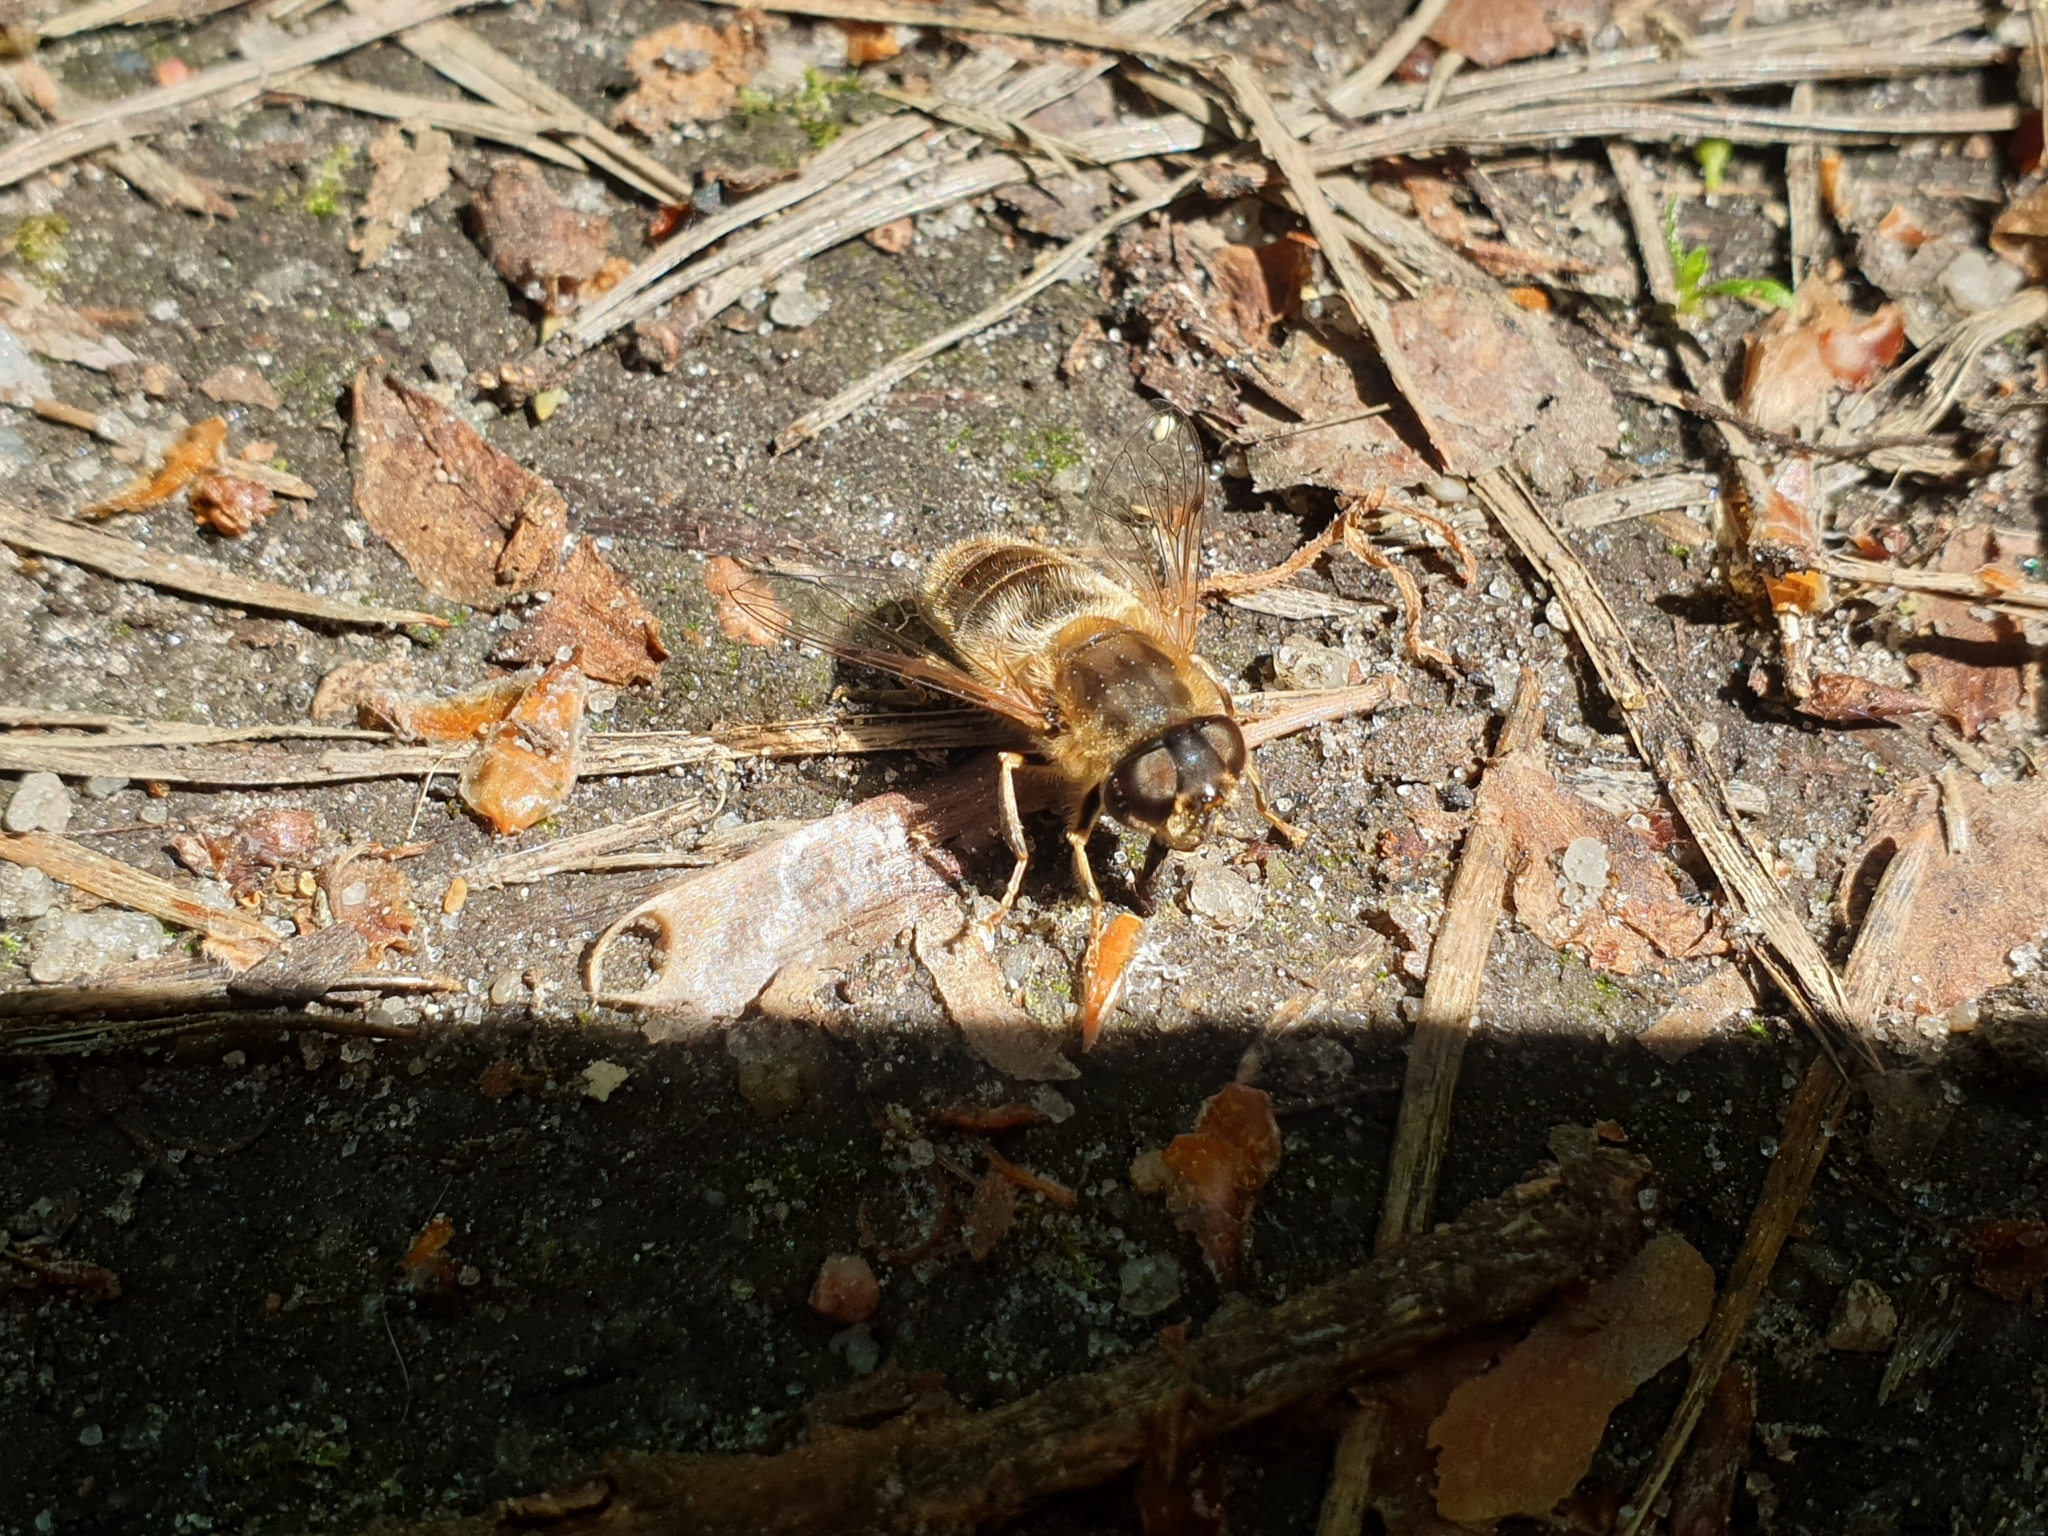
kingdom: Animalia
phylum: Arthropoda
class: Insecta
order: Diptera
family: Syrphidae
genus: Eristalis
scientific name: Eristalis pertinax
